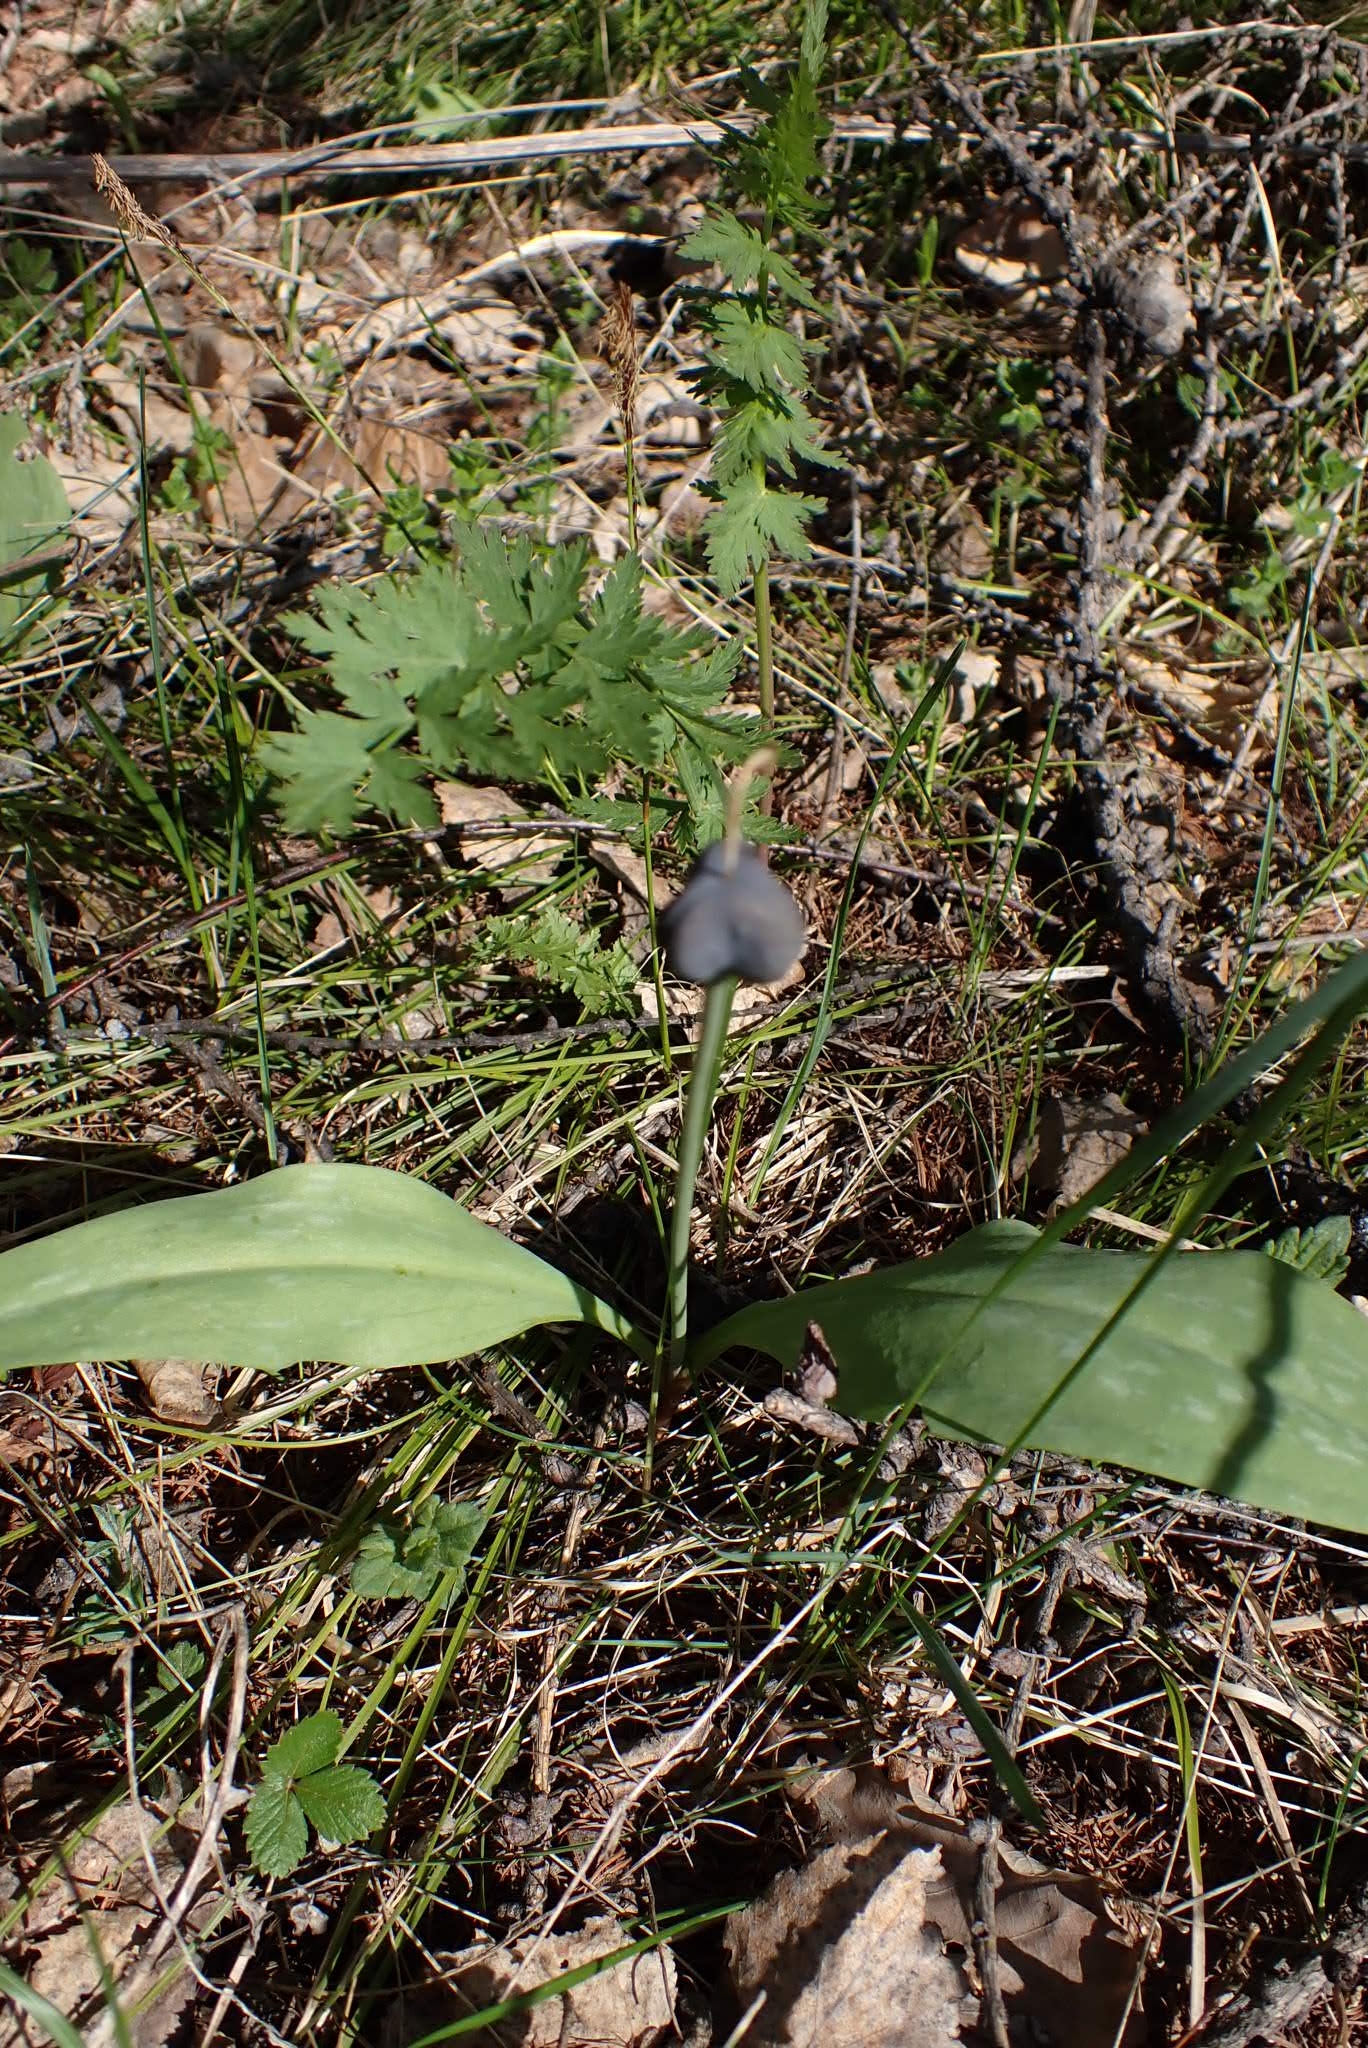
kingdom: Plantae
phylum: Tracheophyta
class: Liliopsida
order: Liliales
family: Liliaceae
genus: Erythronium
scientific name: Erythronium sibiricum
